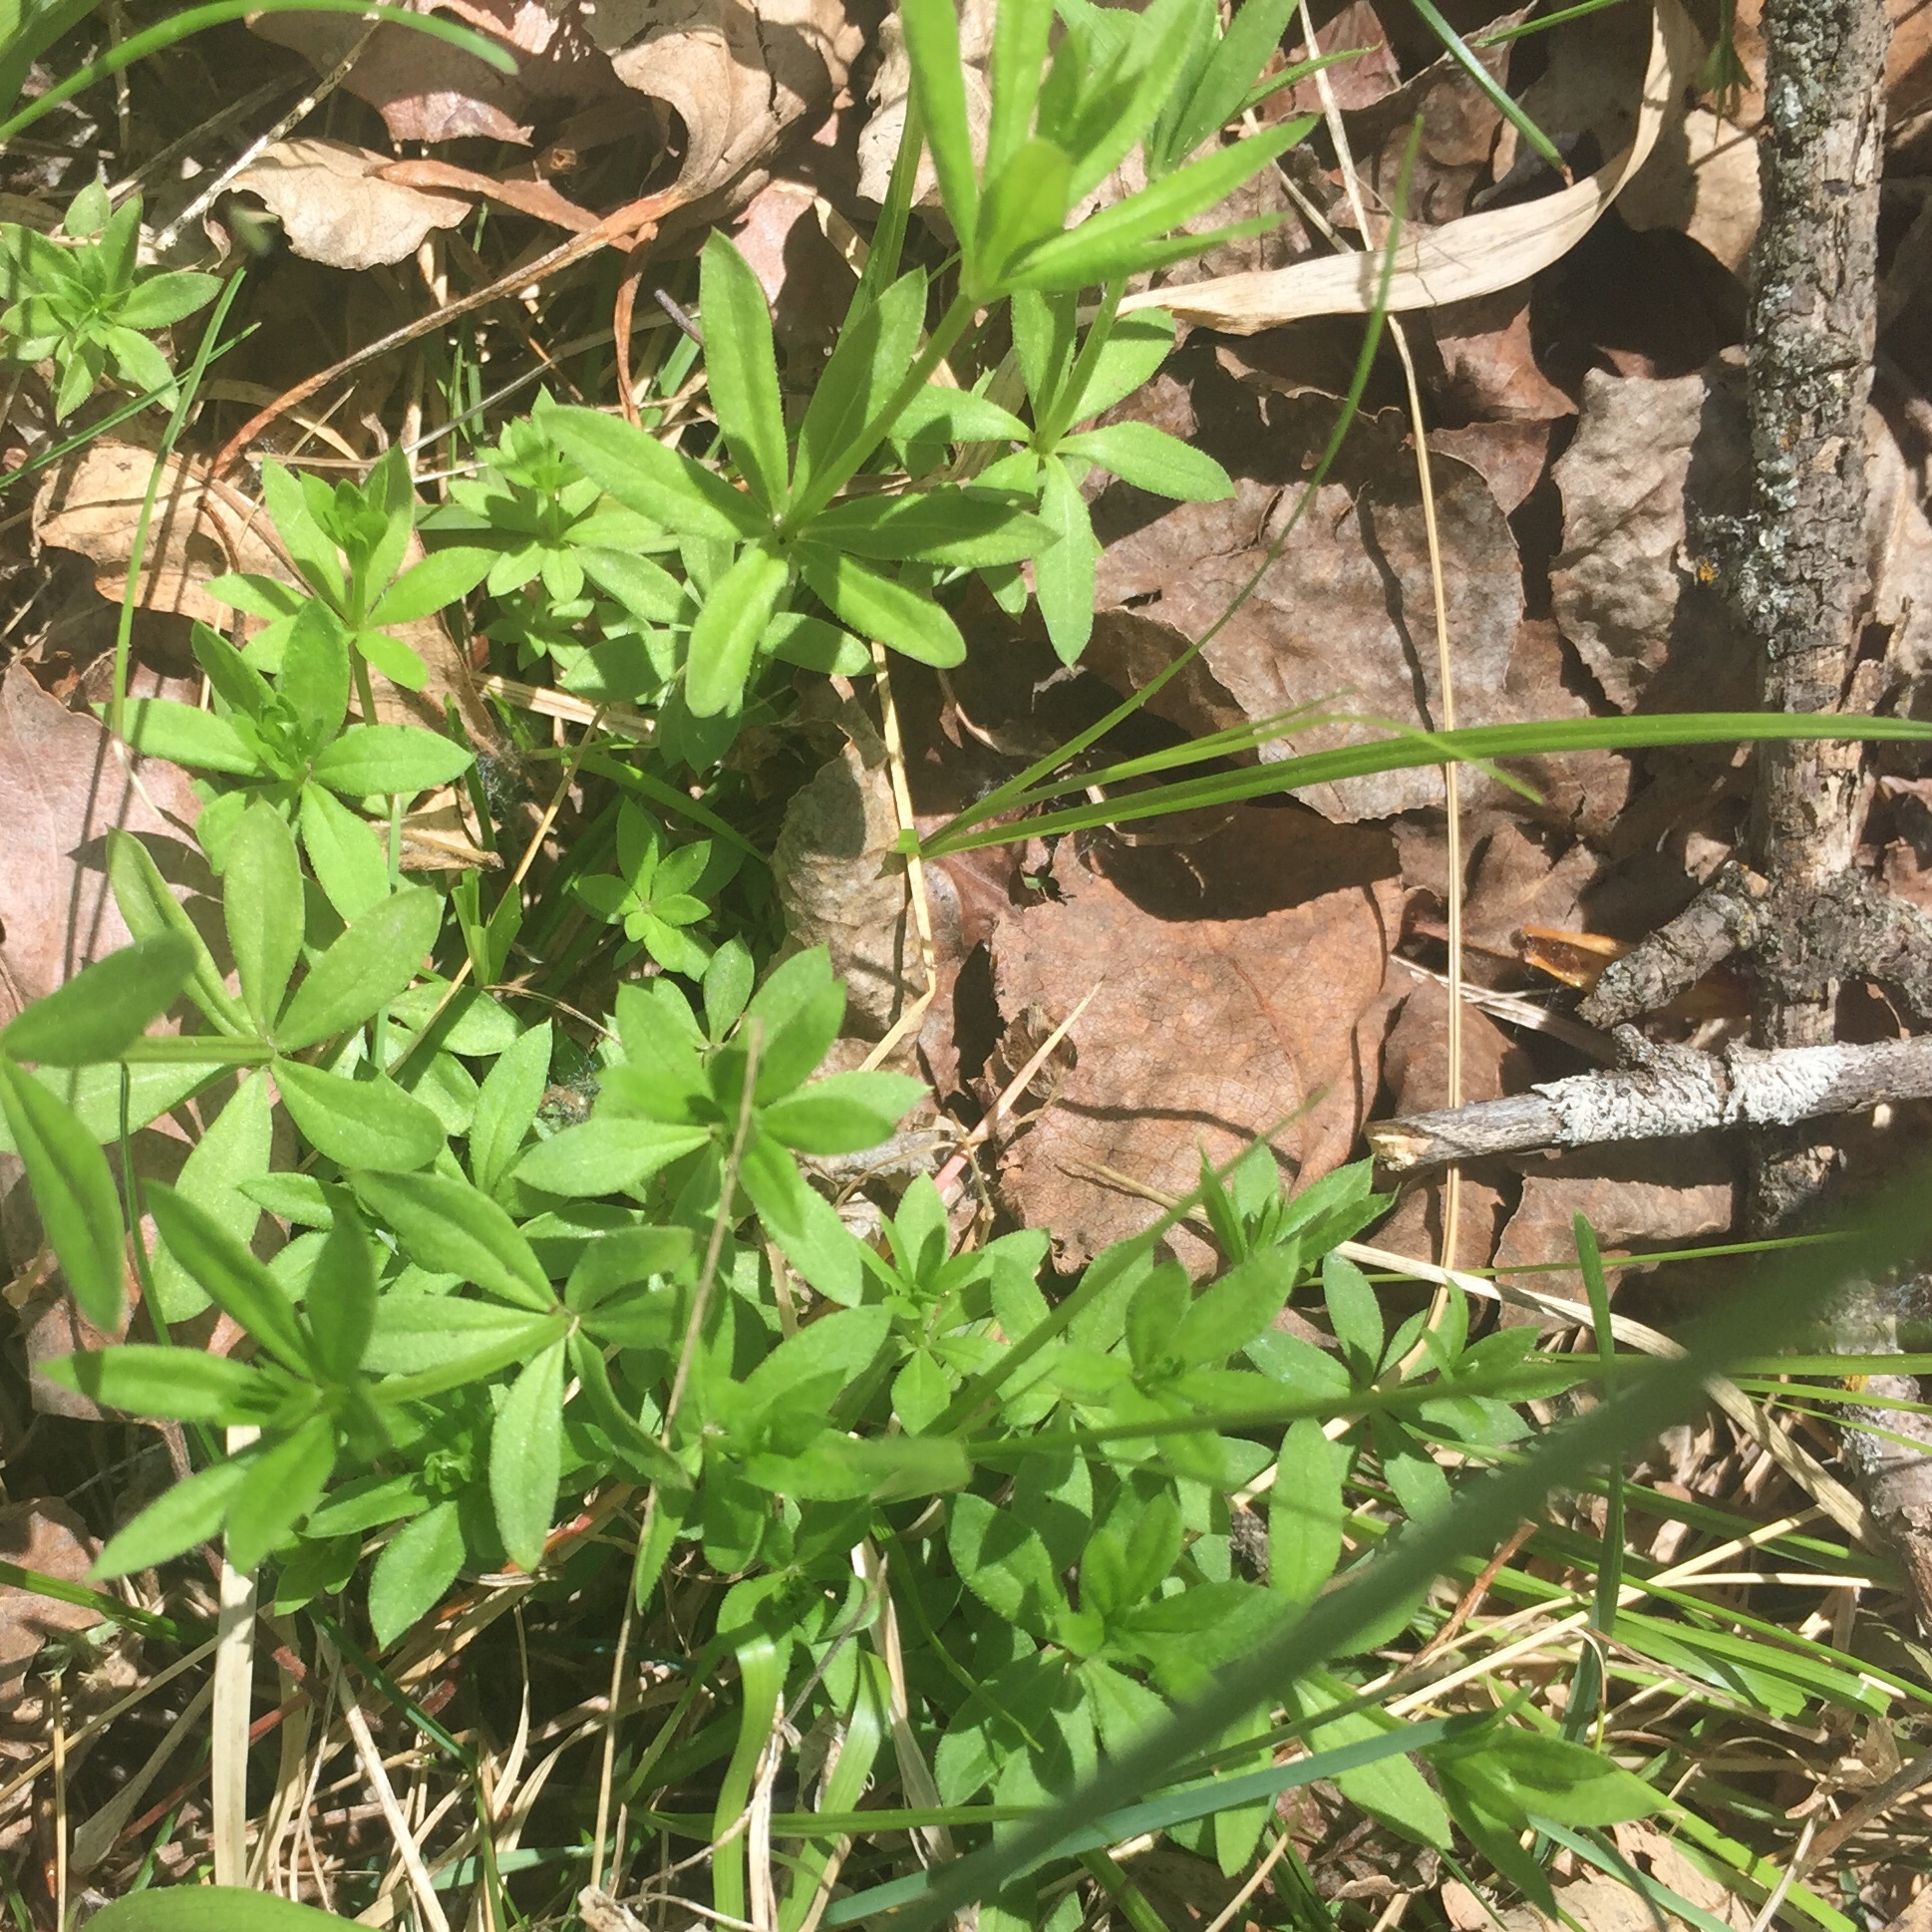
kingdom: Plantae
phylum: Tracheophyta
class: Magnoliopsida
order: Gentianales
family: Rubiaceae
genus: Galium
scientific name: Galium triflorum
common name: Fragrant bedstraw
